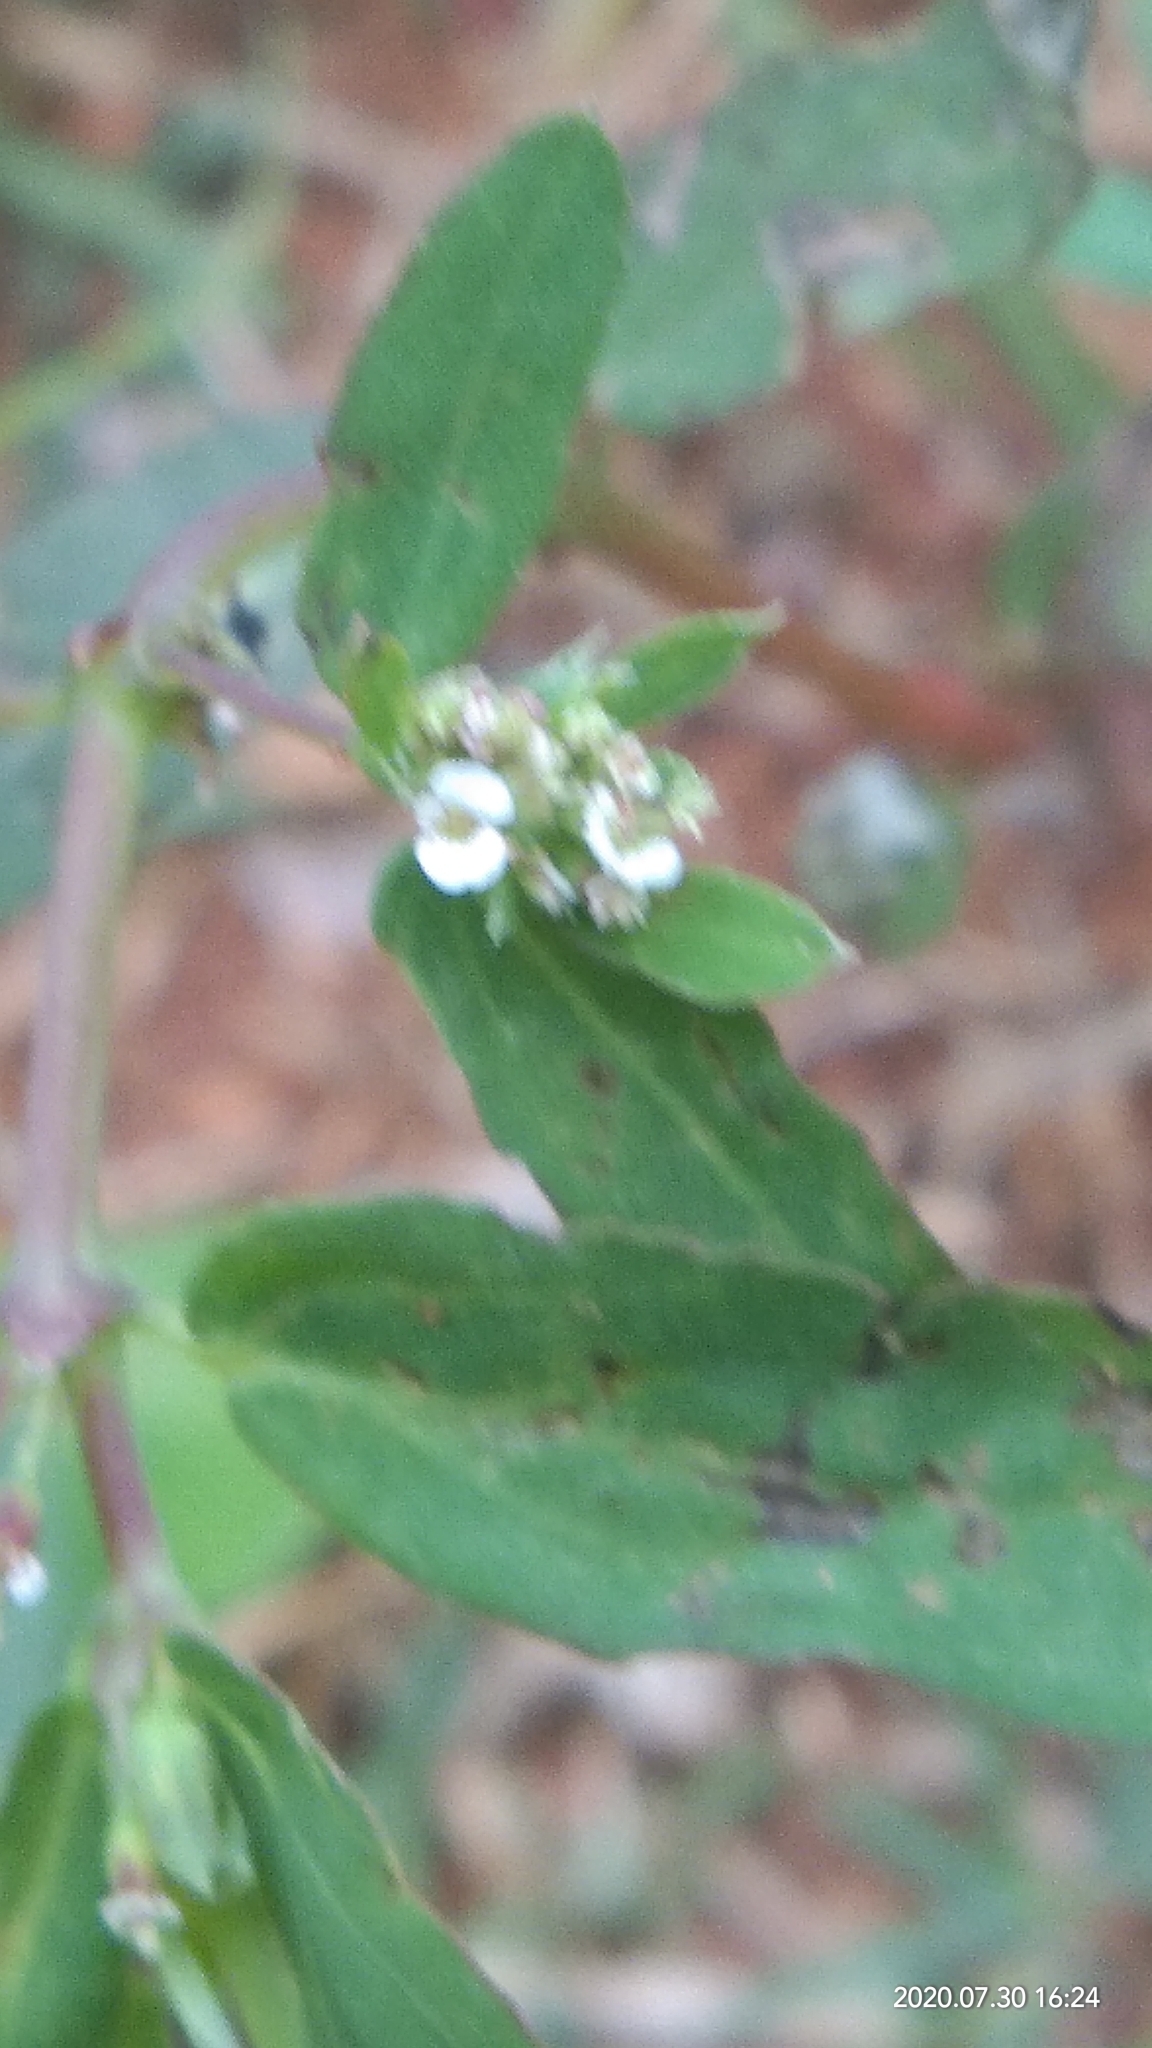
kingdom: Plantae
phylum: Tracheophyta
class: Magnoliopsida
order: Malpighiales
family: Euphorbiaceae
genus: Euphorbia
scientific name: Euphorbia hypericifolia
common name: Graceful sandmat
